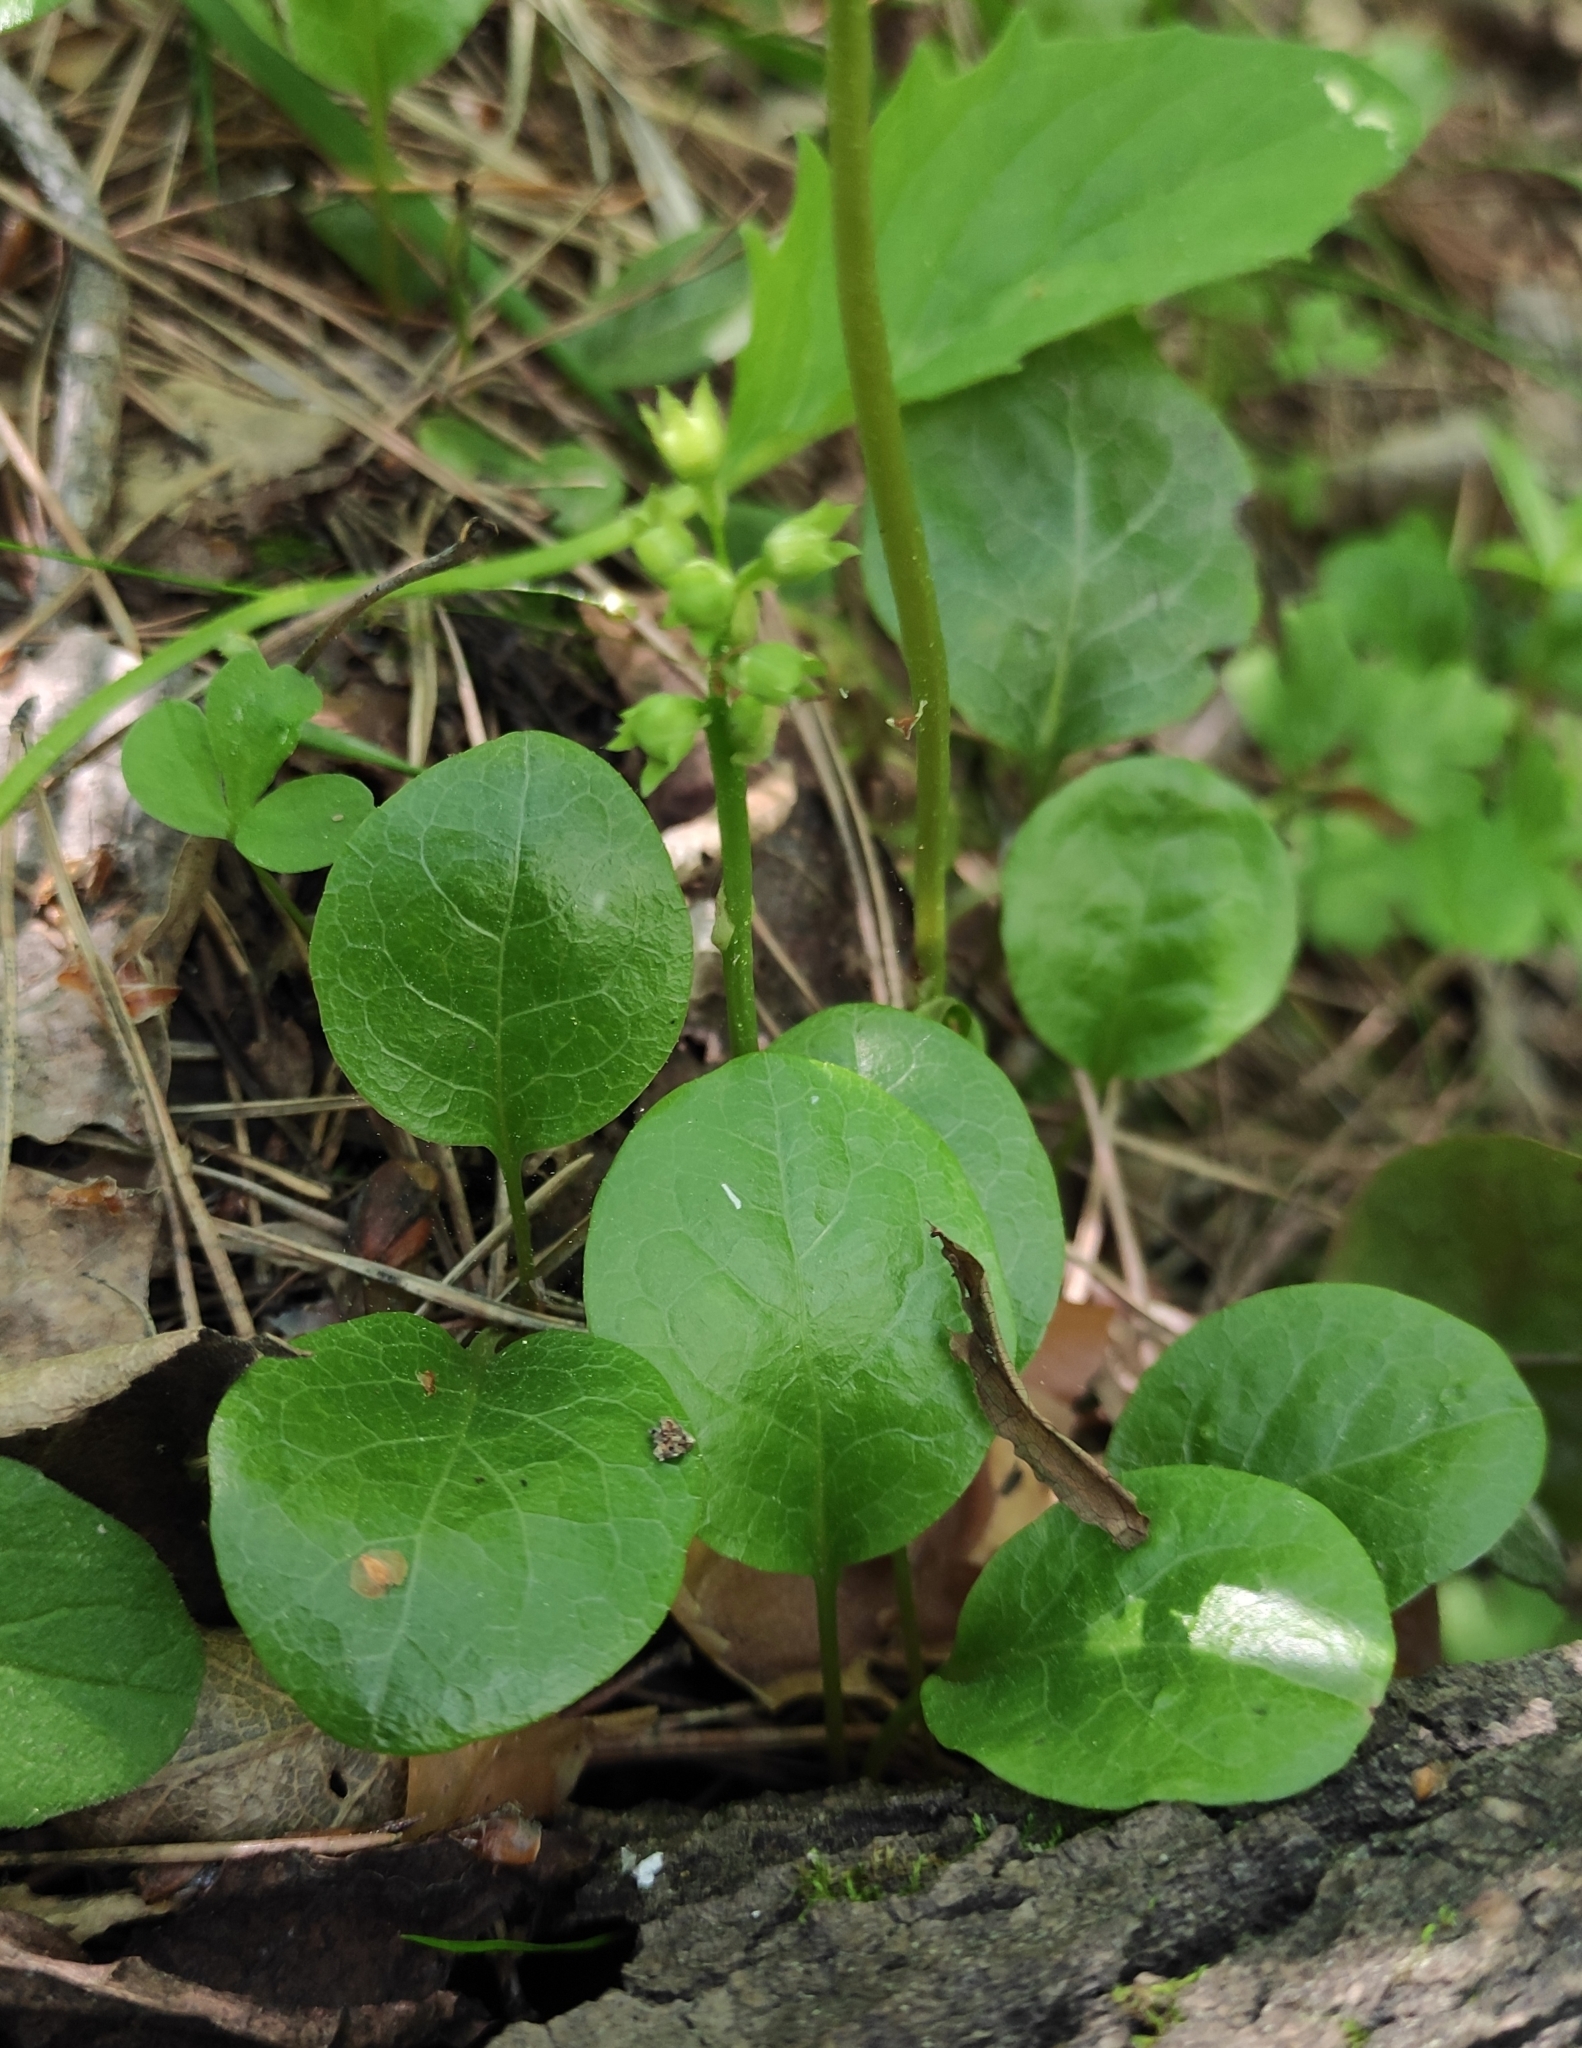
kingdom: Plantae
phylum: Tracheophyta
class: Magnoliopsida
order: Ericales
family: Ericaceae
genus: Pyrola
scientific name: Pyrola rotundifolia
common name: Round-leaved wintergreen
